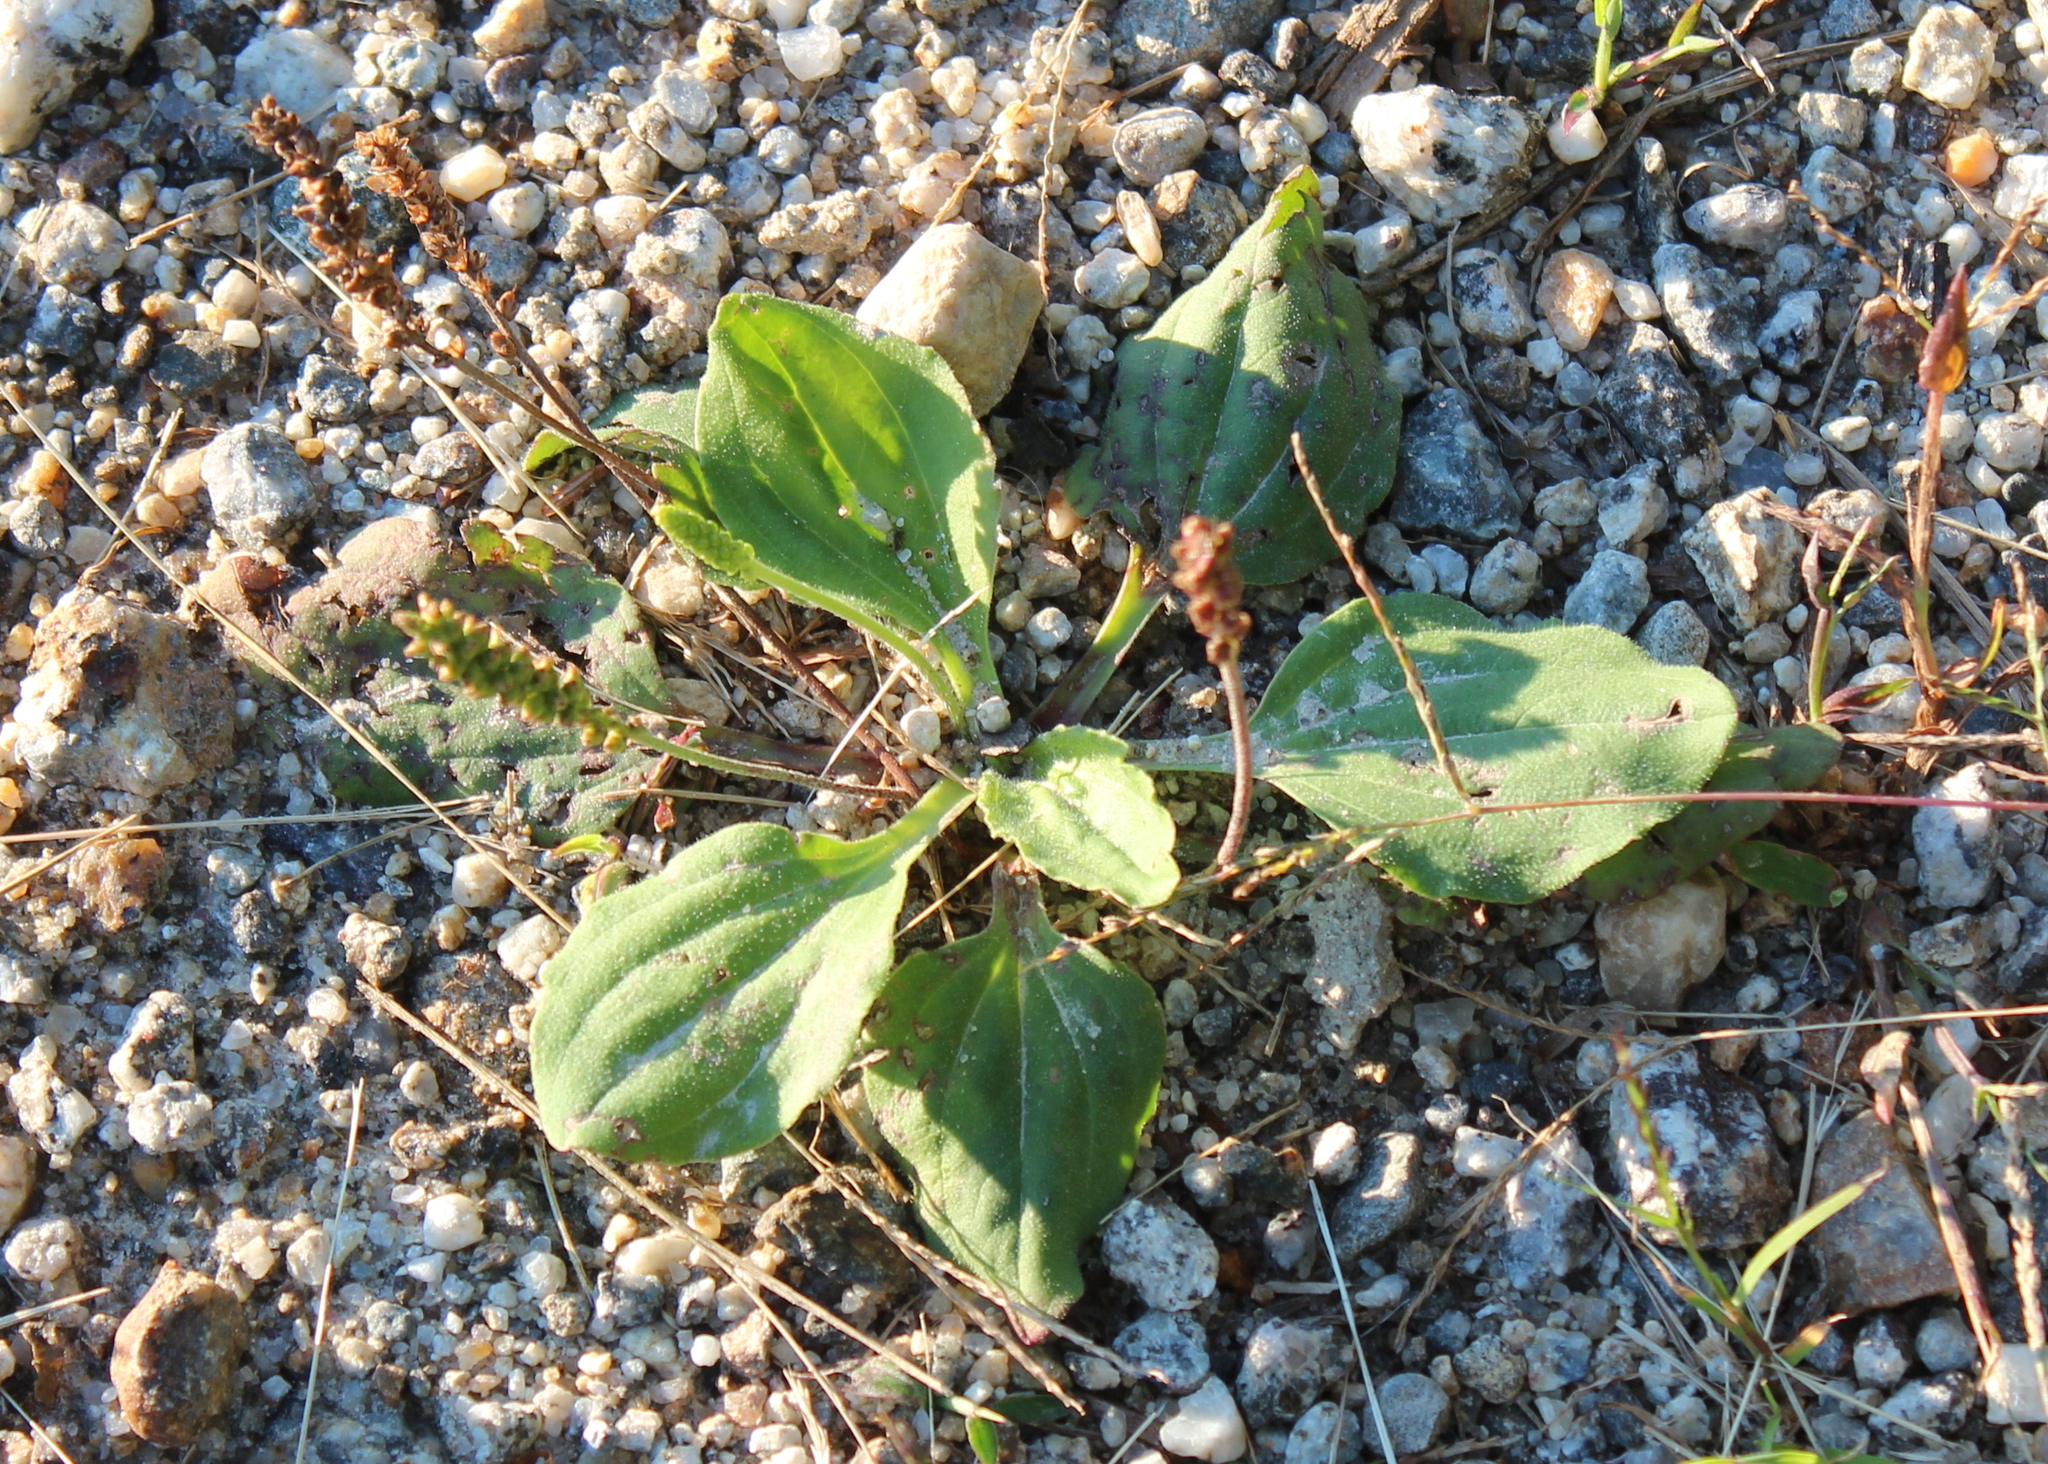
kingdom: Plantae
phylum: Tracheophyta
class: Magnoliopsida
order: Lamiales
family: Plantaginaceae
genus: Plantago
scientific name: Plantago major
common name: Common plantain
